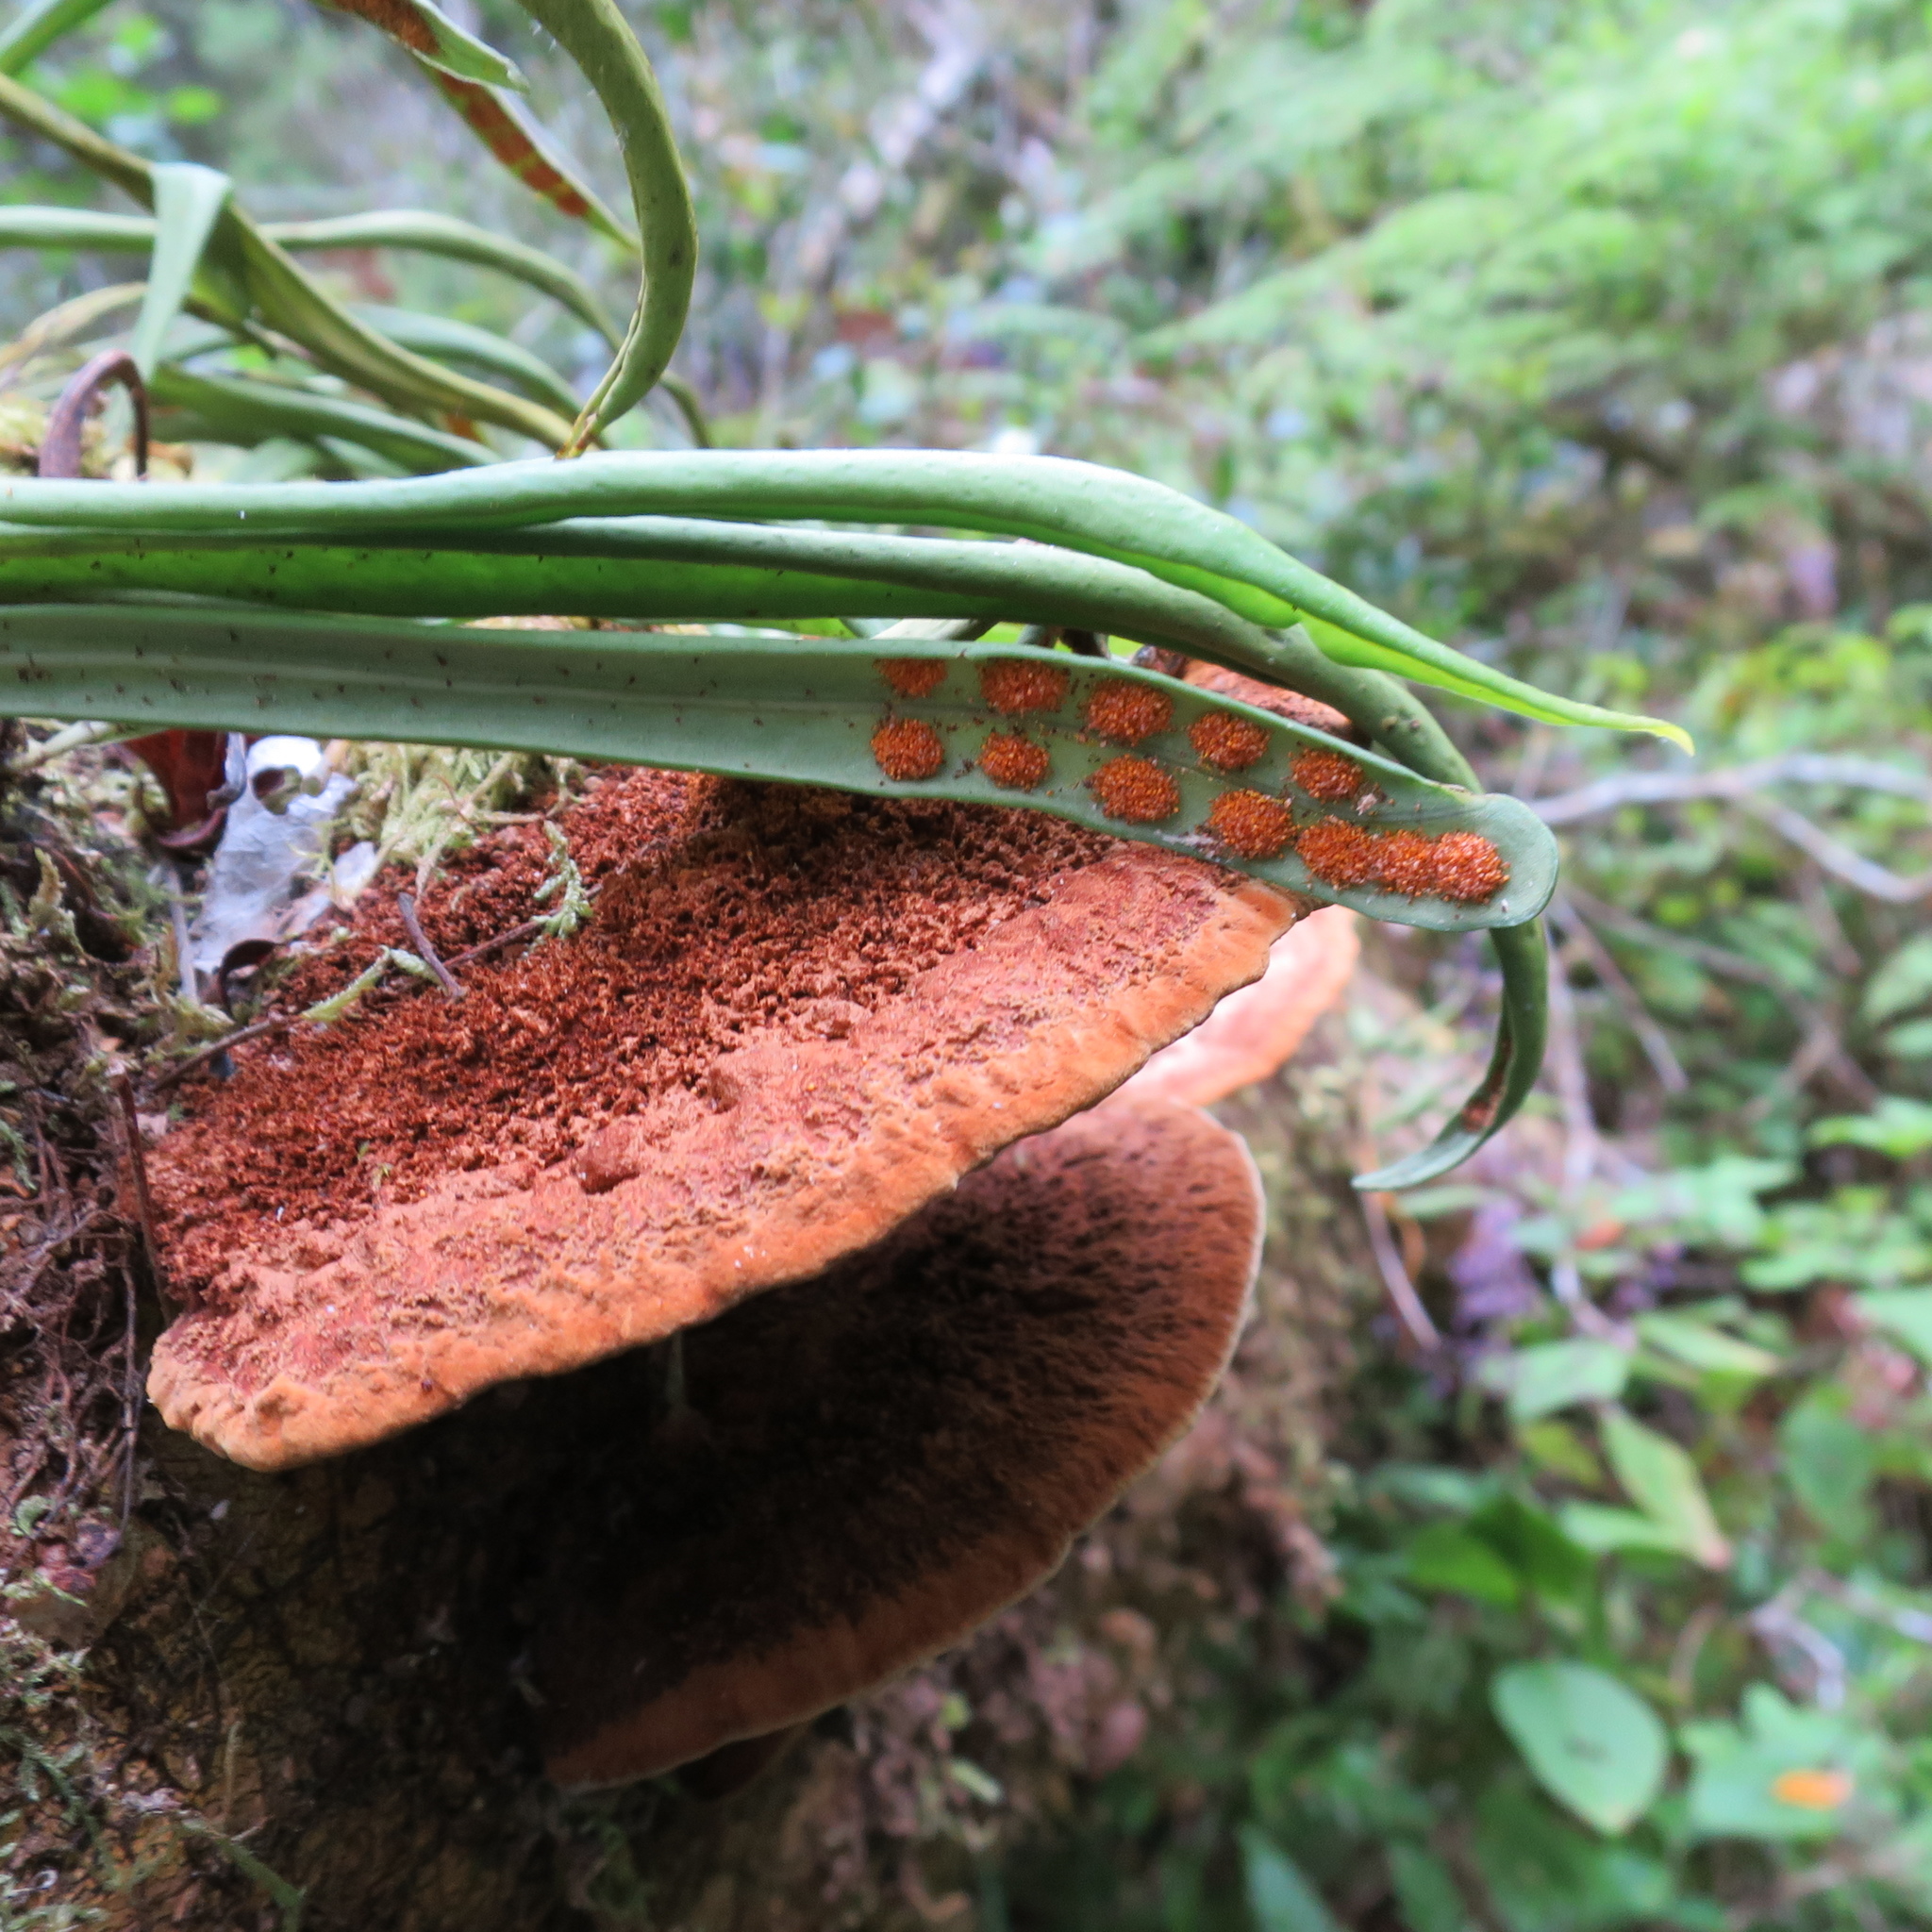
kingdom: Plantae
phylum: Tracheophyta
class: Polypodiopsida
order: Polypodiales
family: Polypodiaceae
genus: Pleopeltis
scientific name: Pleopeltis macrocarpa
